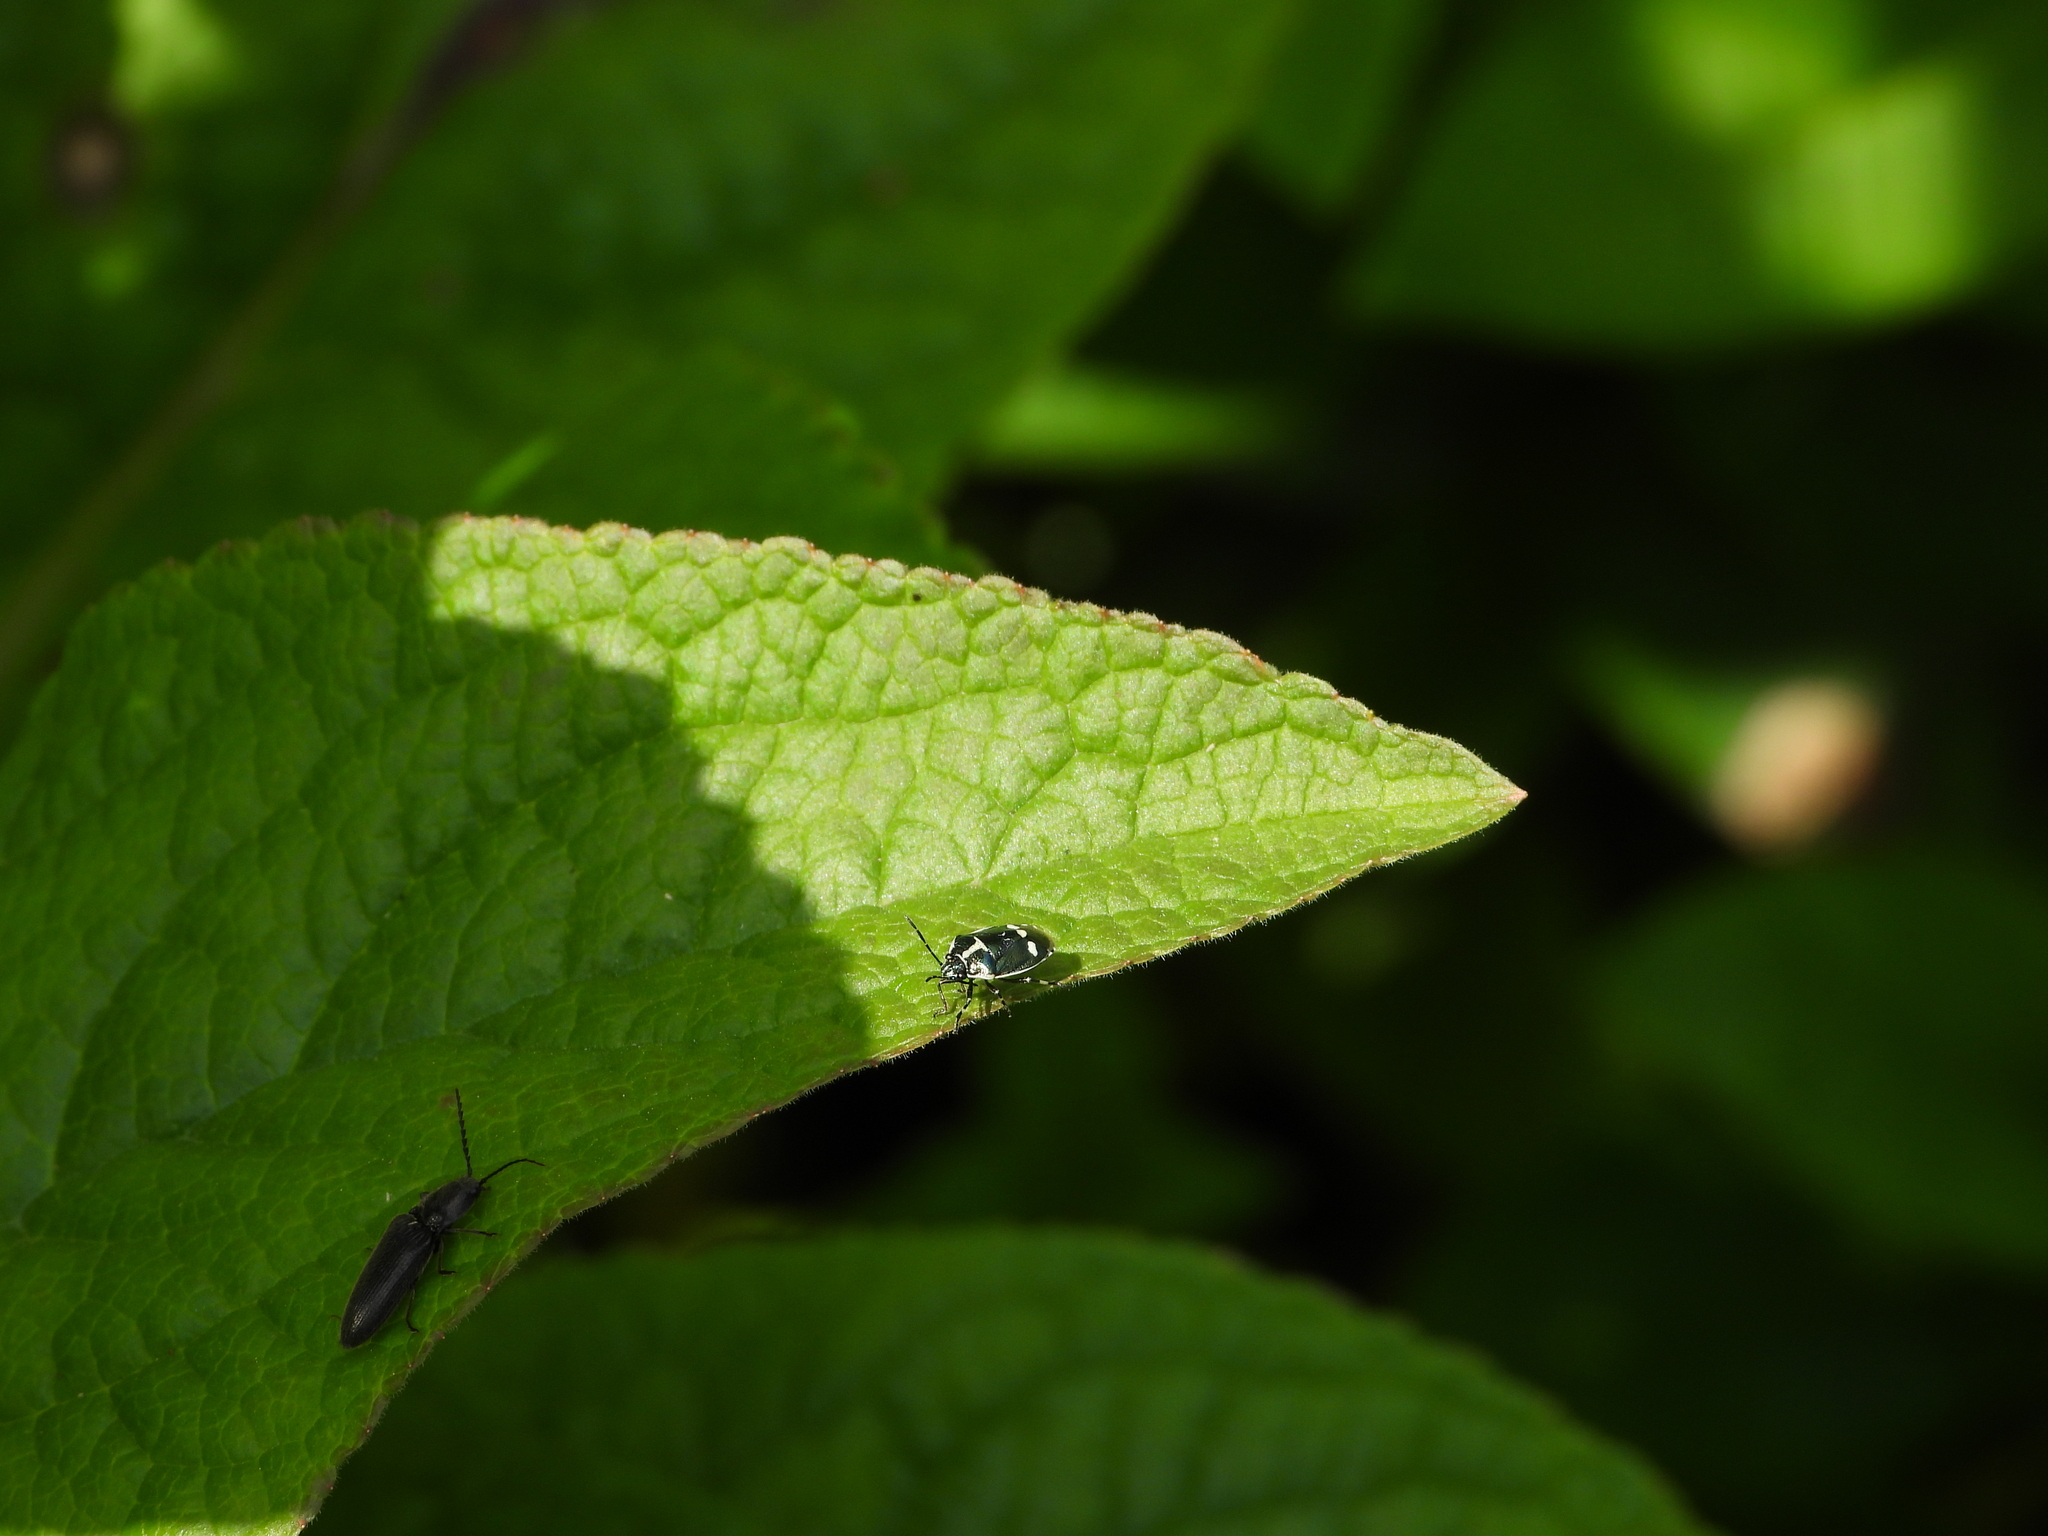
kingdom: Animalia
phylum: Arthropoda
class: Insecta
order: Hemiptera
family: Pentatomidae
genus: Eurydema
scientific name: Eurydema oleracea
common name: Cabbage bug
